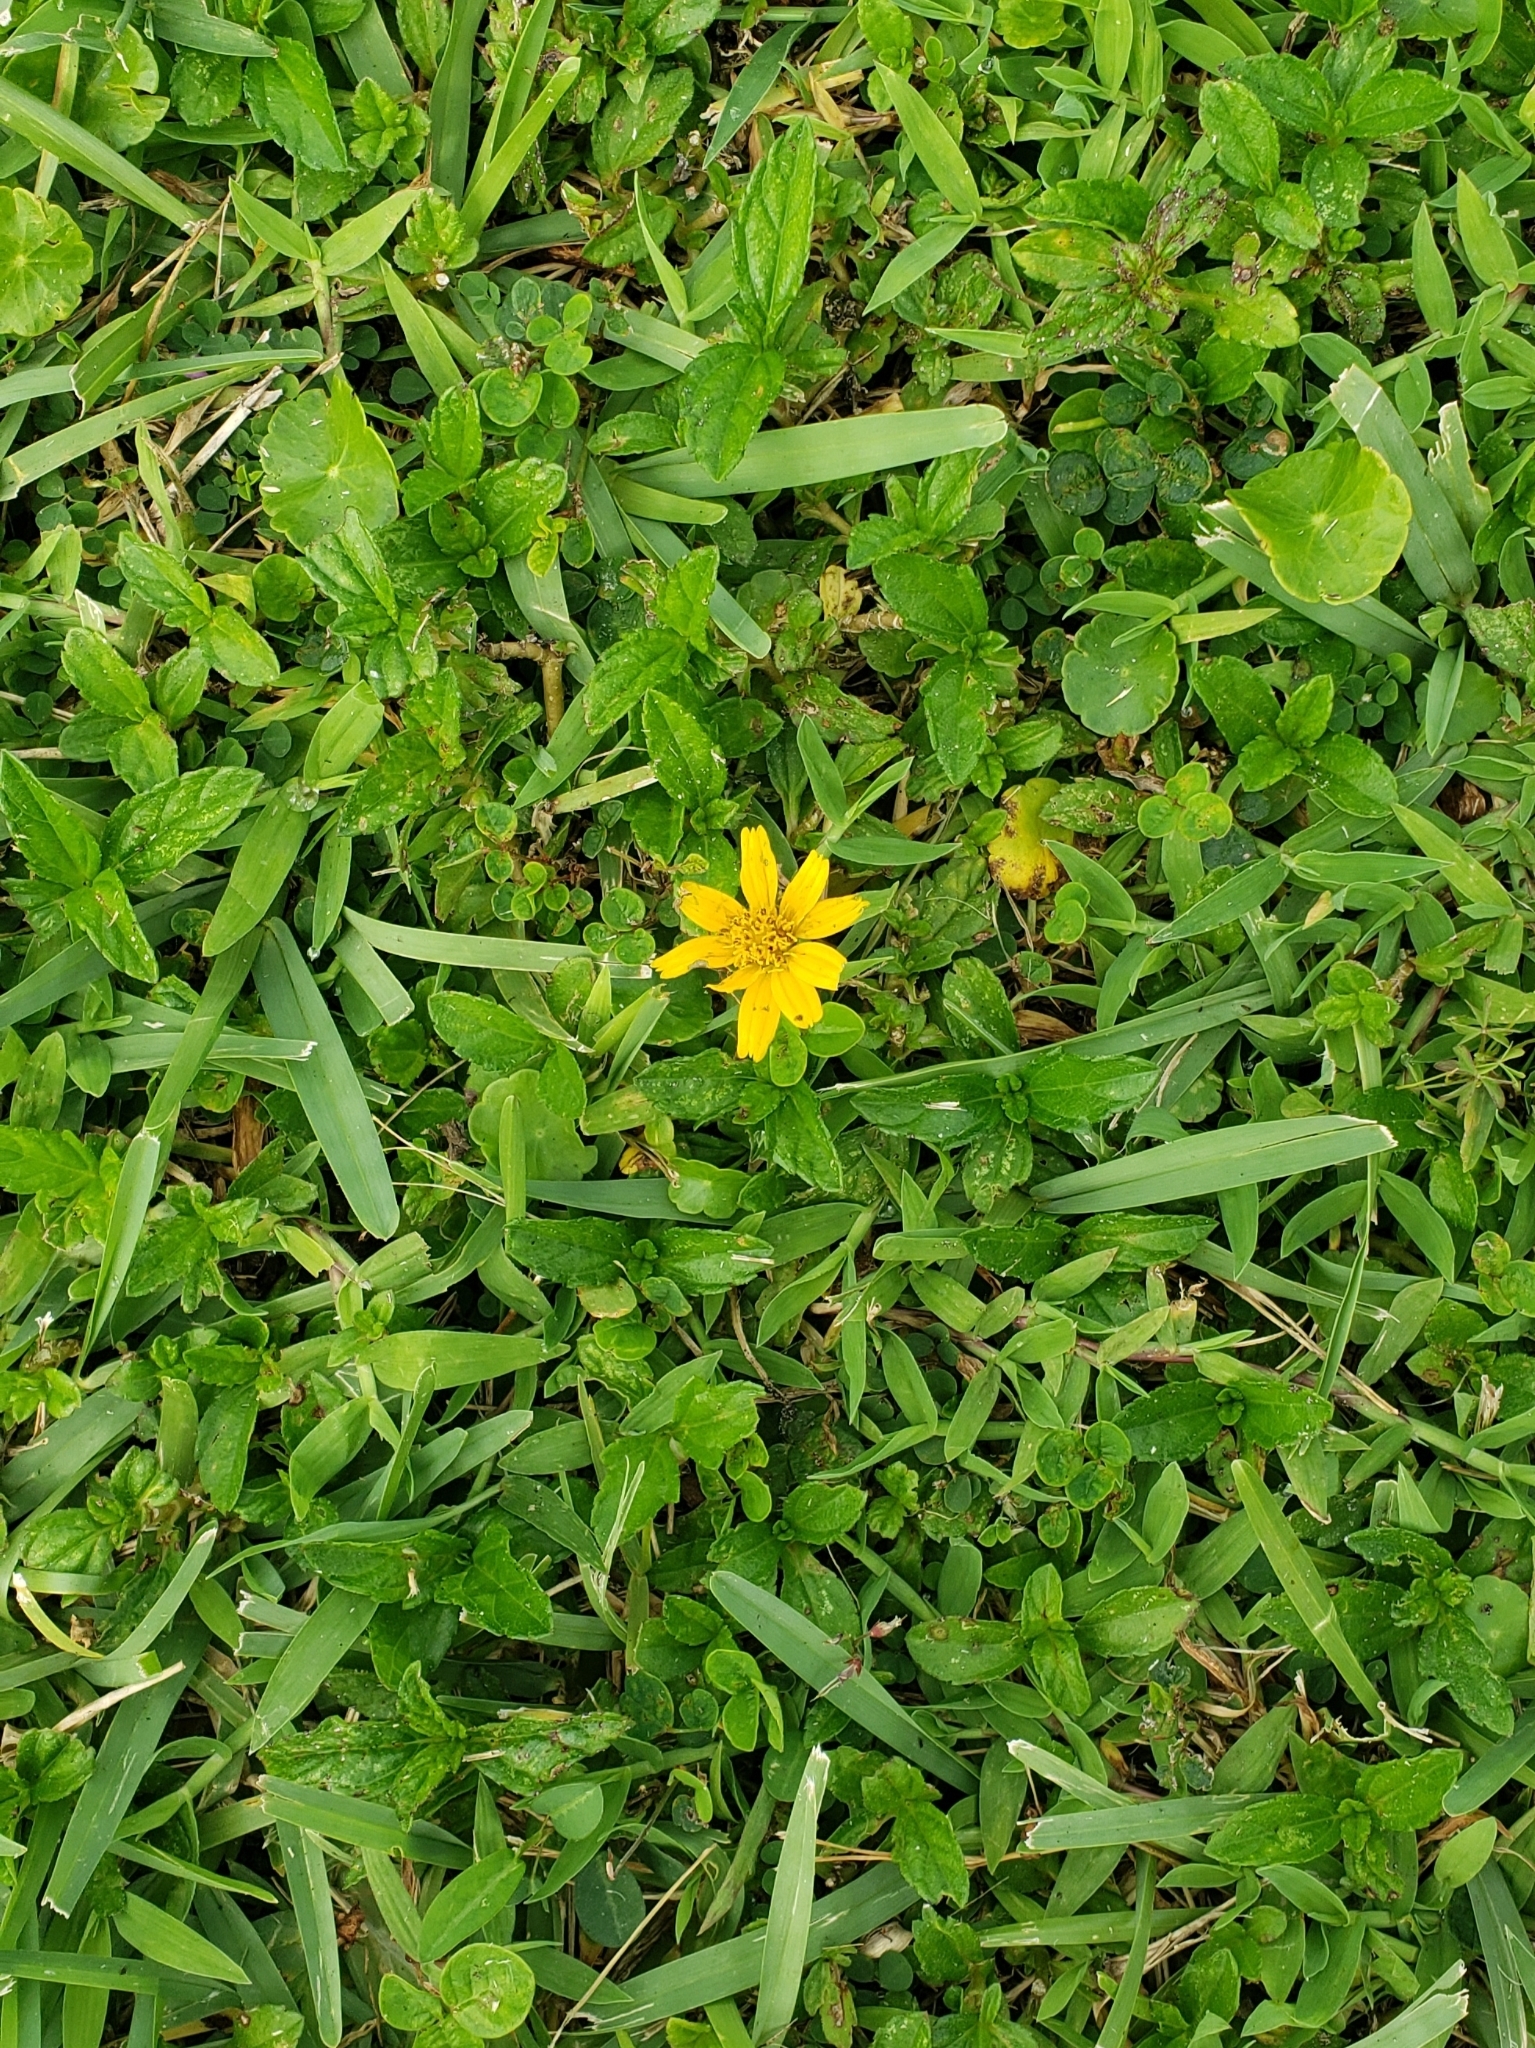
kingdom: Plantae
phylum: Tracheophyta
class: Magnoliopsida
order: Asterales
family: Asteraceae
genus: Sphagneticola
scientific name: Sphagneticola trilobata
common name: Bay biscayne creeping-oxeye
